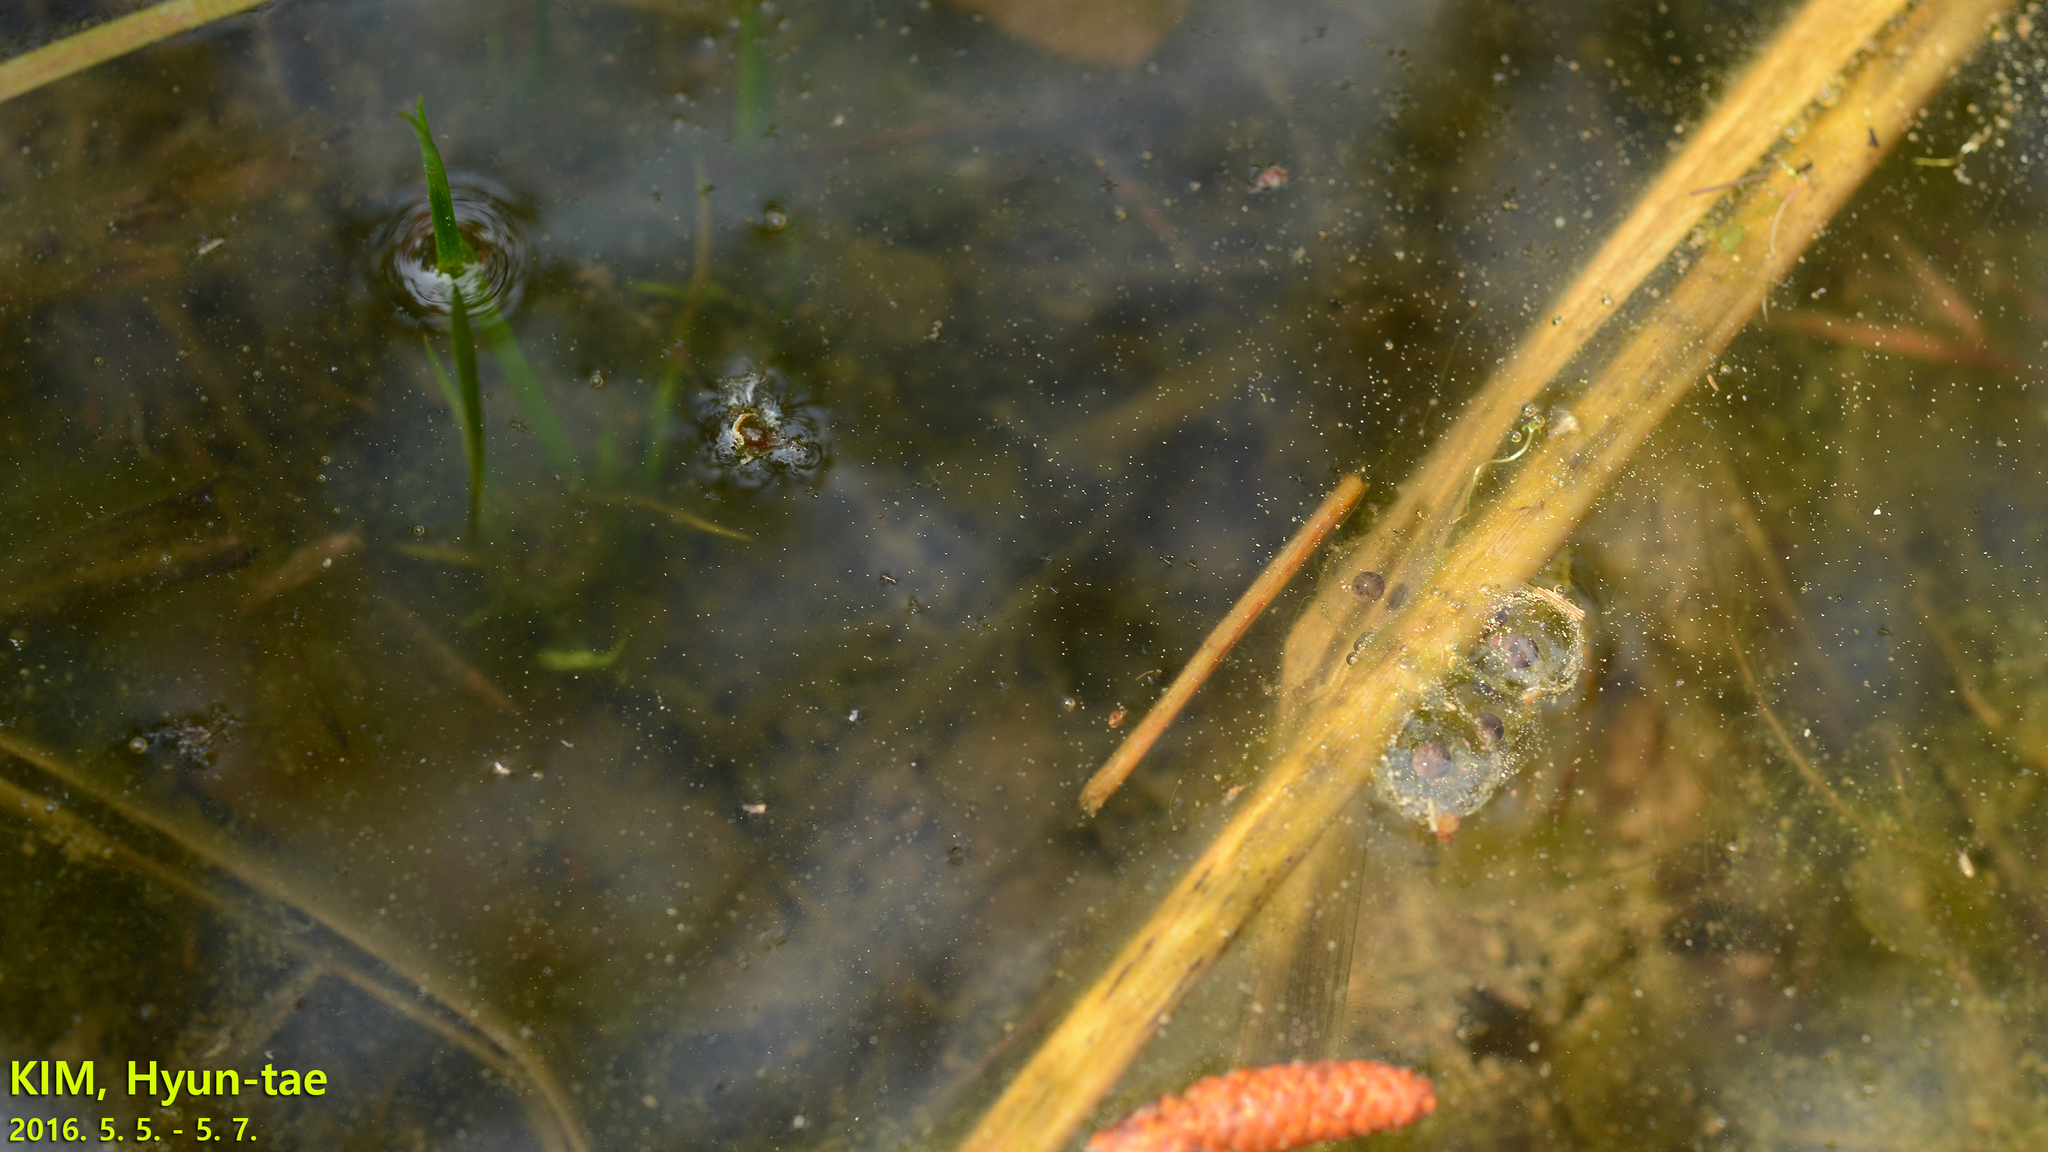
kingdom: Animalia
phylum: Chordata
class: Amphibia
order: Anura
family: Bombinatoridae
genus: Bombina
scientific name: Bombina orientalis
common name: Oriental firebelly toad
